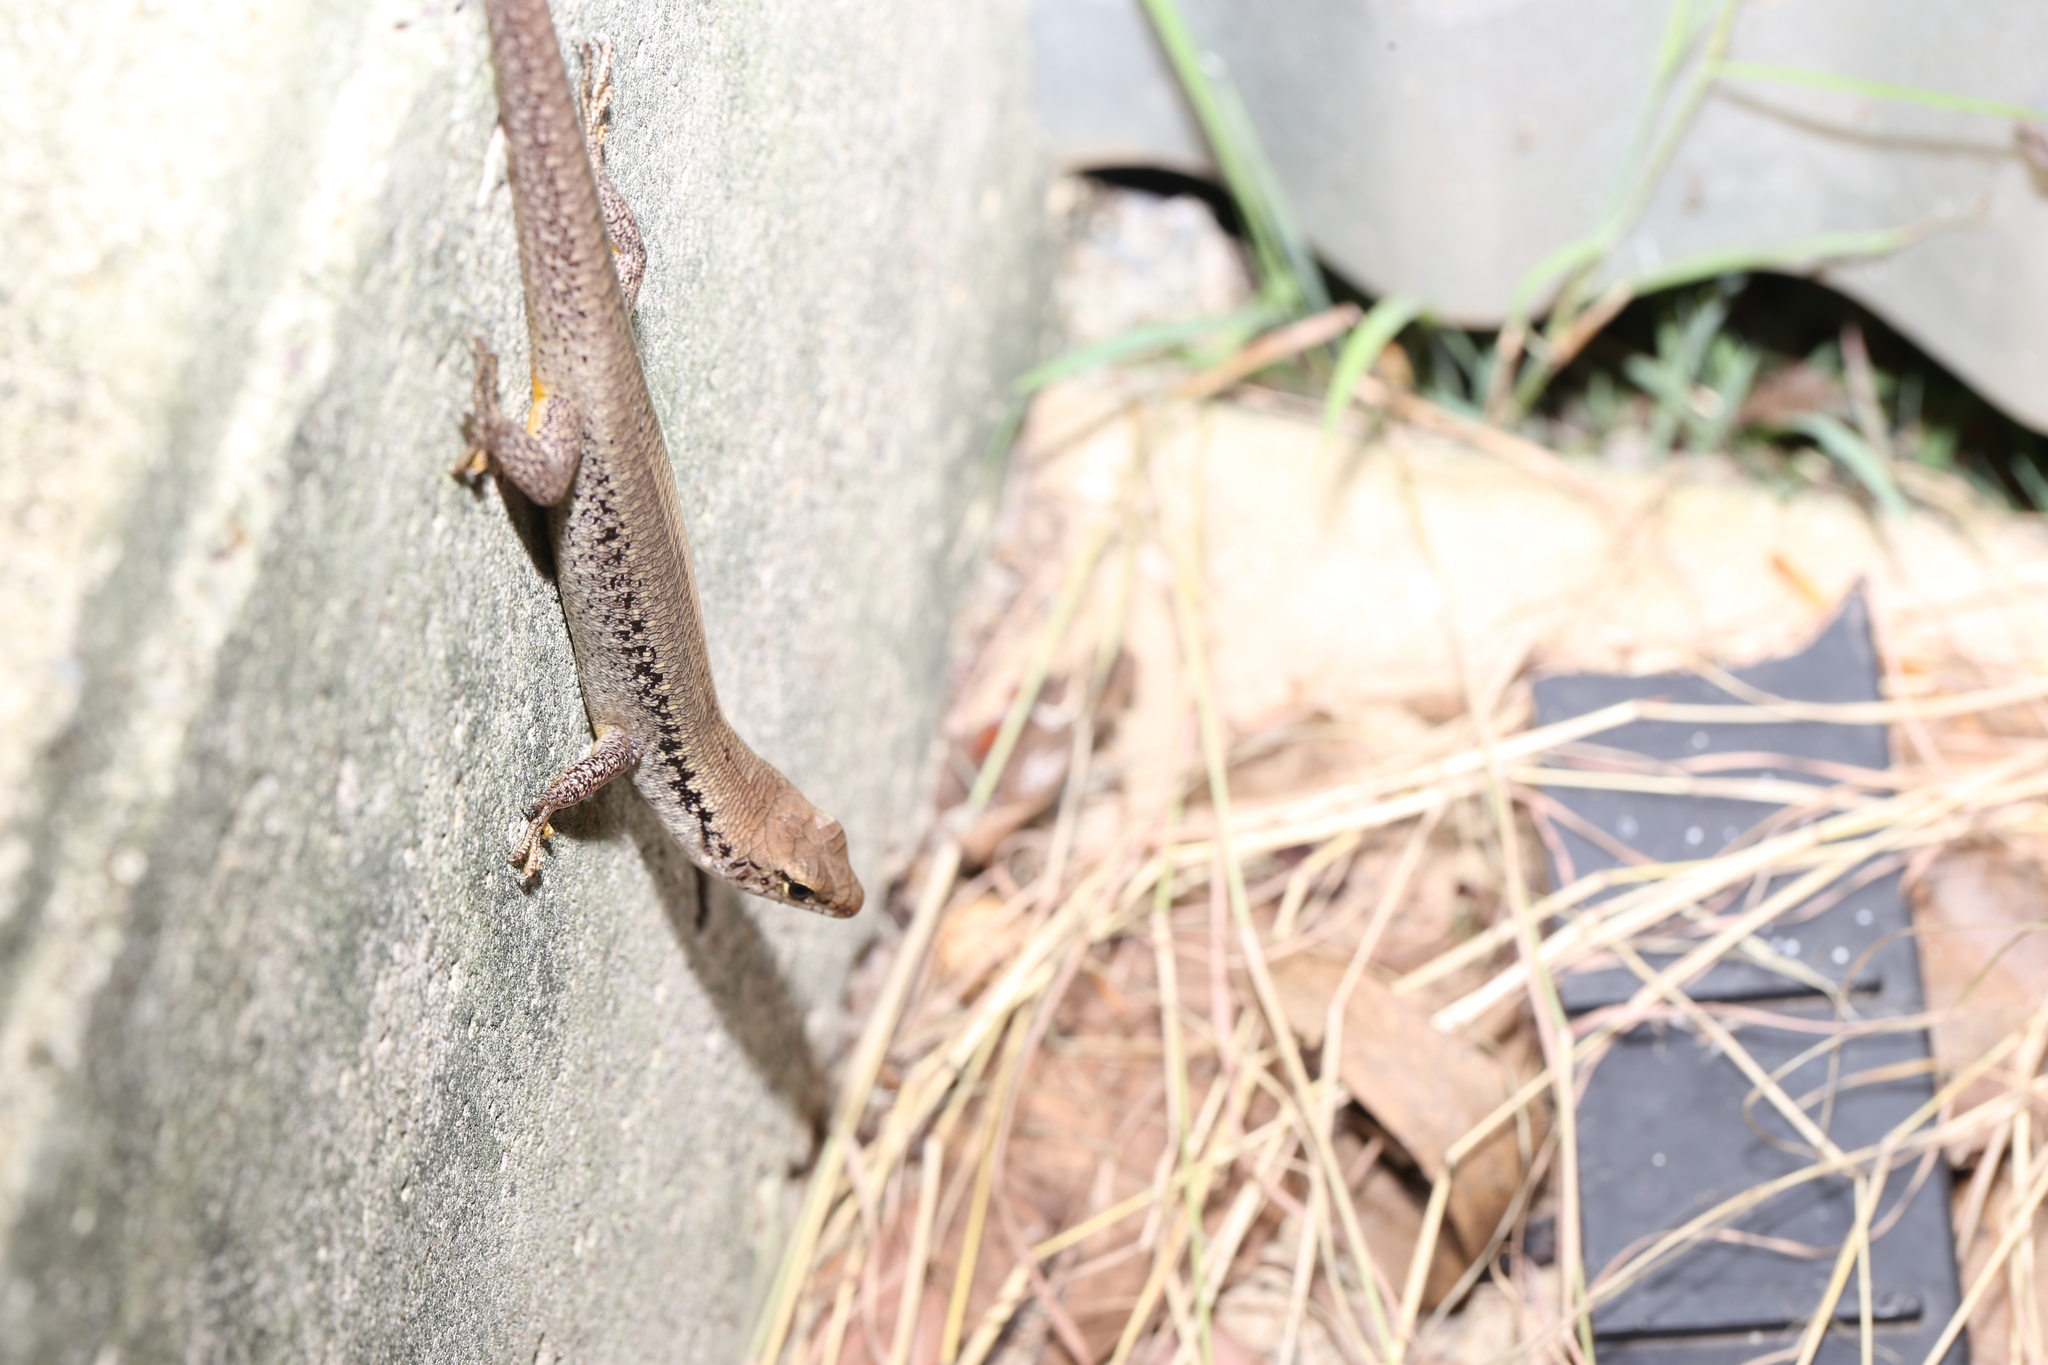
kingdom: Animalia
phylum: Chordata
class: Squamata
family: Scincidae
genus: Concinnia
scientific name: Concinnia tenuis
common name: Bar-sided forest-skink
